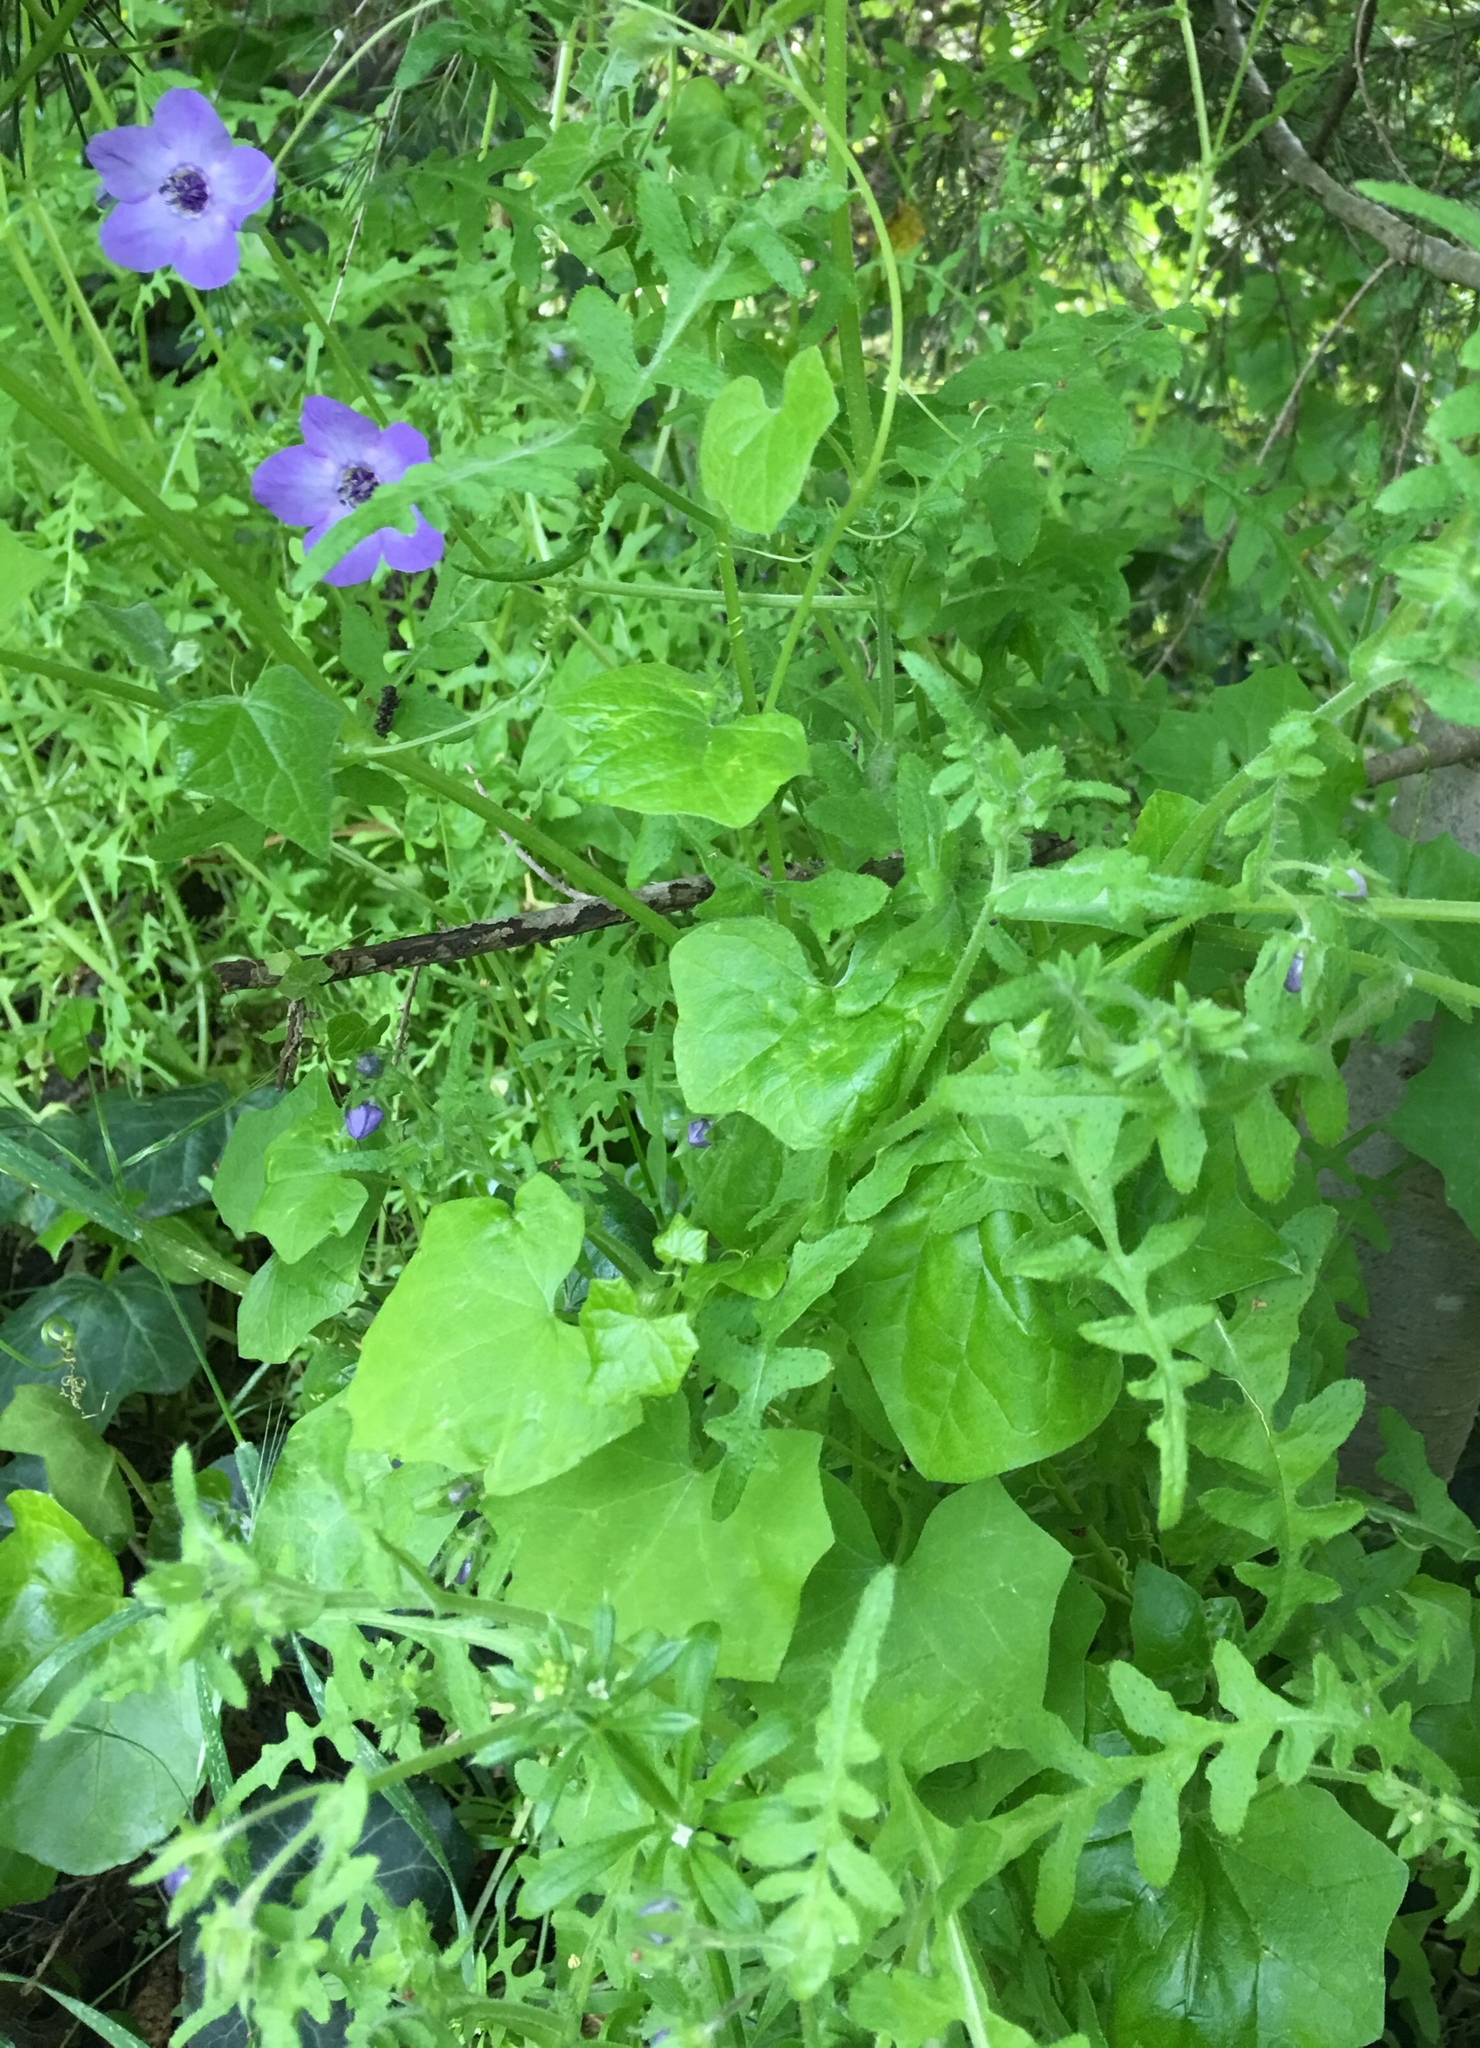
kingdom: Plantae
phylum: Tracheophyta
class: Magnoliopsida
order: Boraginales
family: Hydrophyllaceae
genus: Pholistoma
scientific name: Pholistoma auritum
